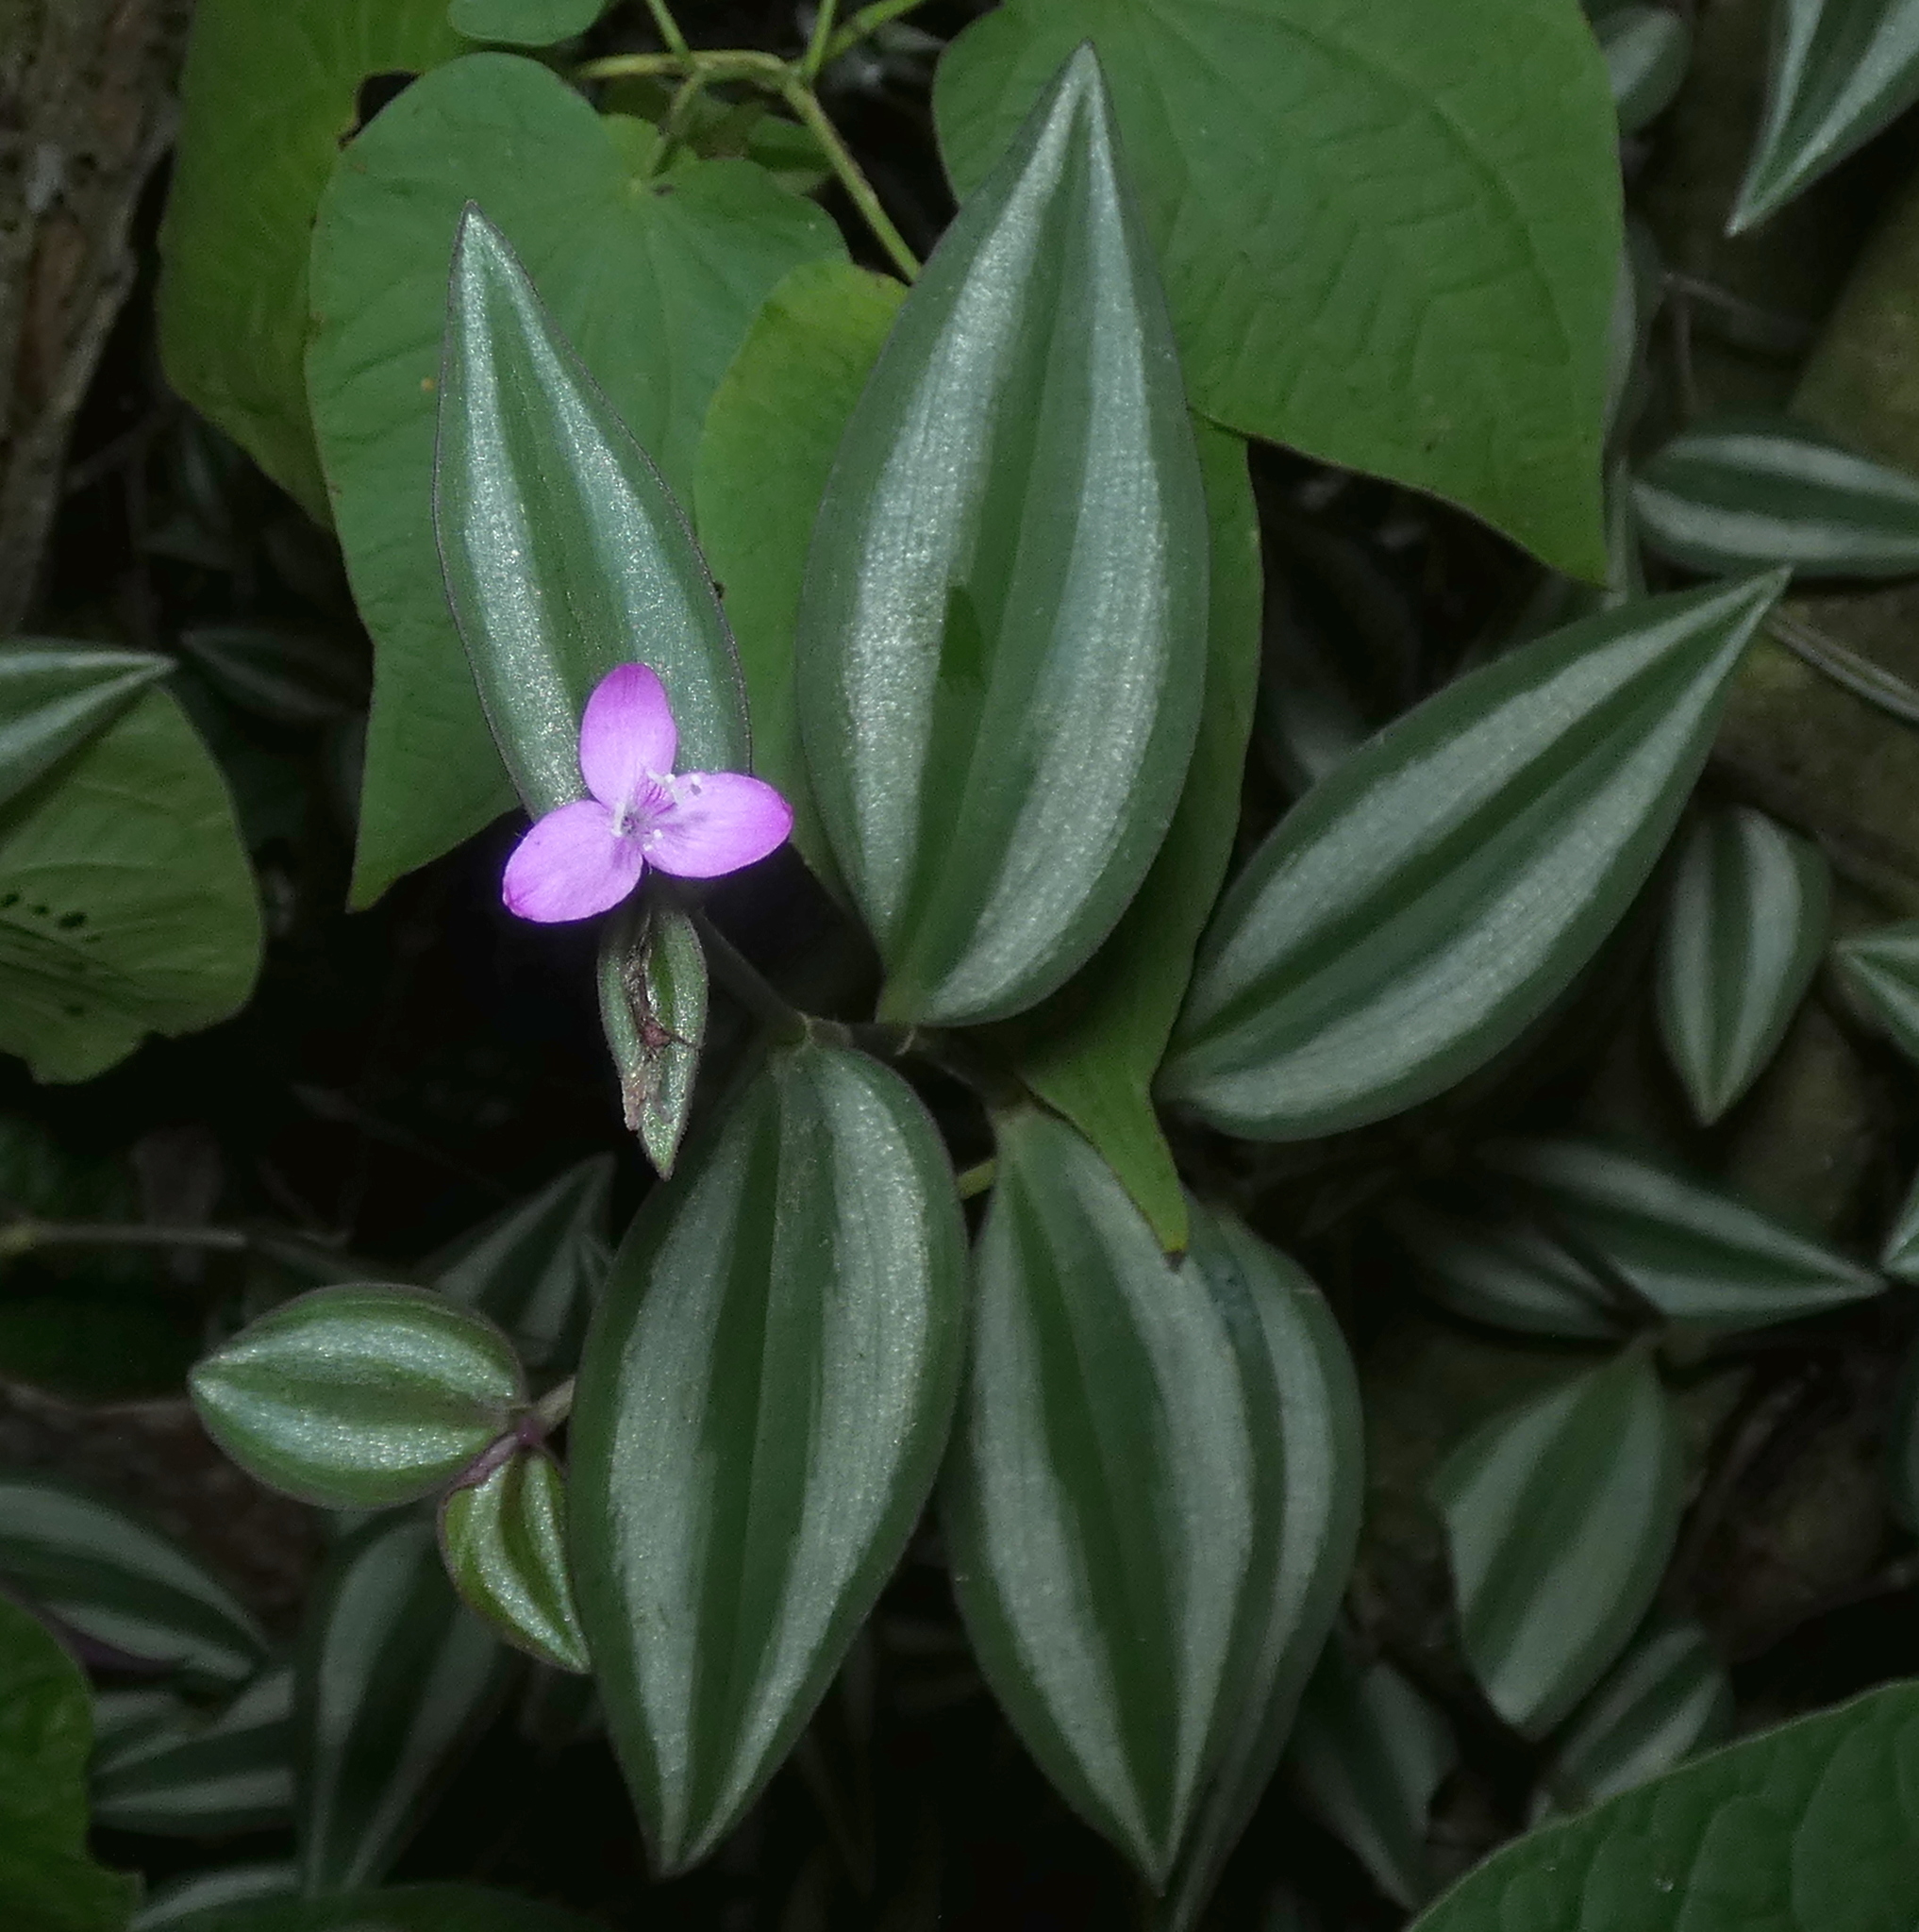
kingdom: Plantae
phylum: Tracheophyta
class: Liliopsida
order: Commelinales
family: Commelinaceae
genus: Tradescantia
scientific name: Tradescantia zebrina
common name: Inchplant
